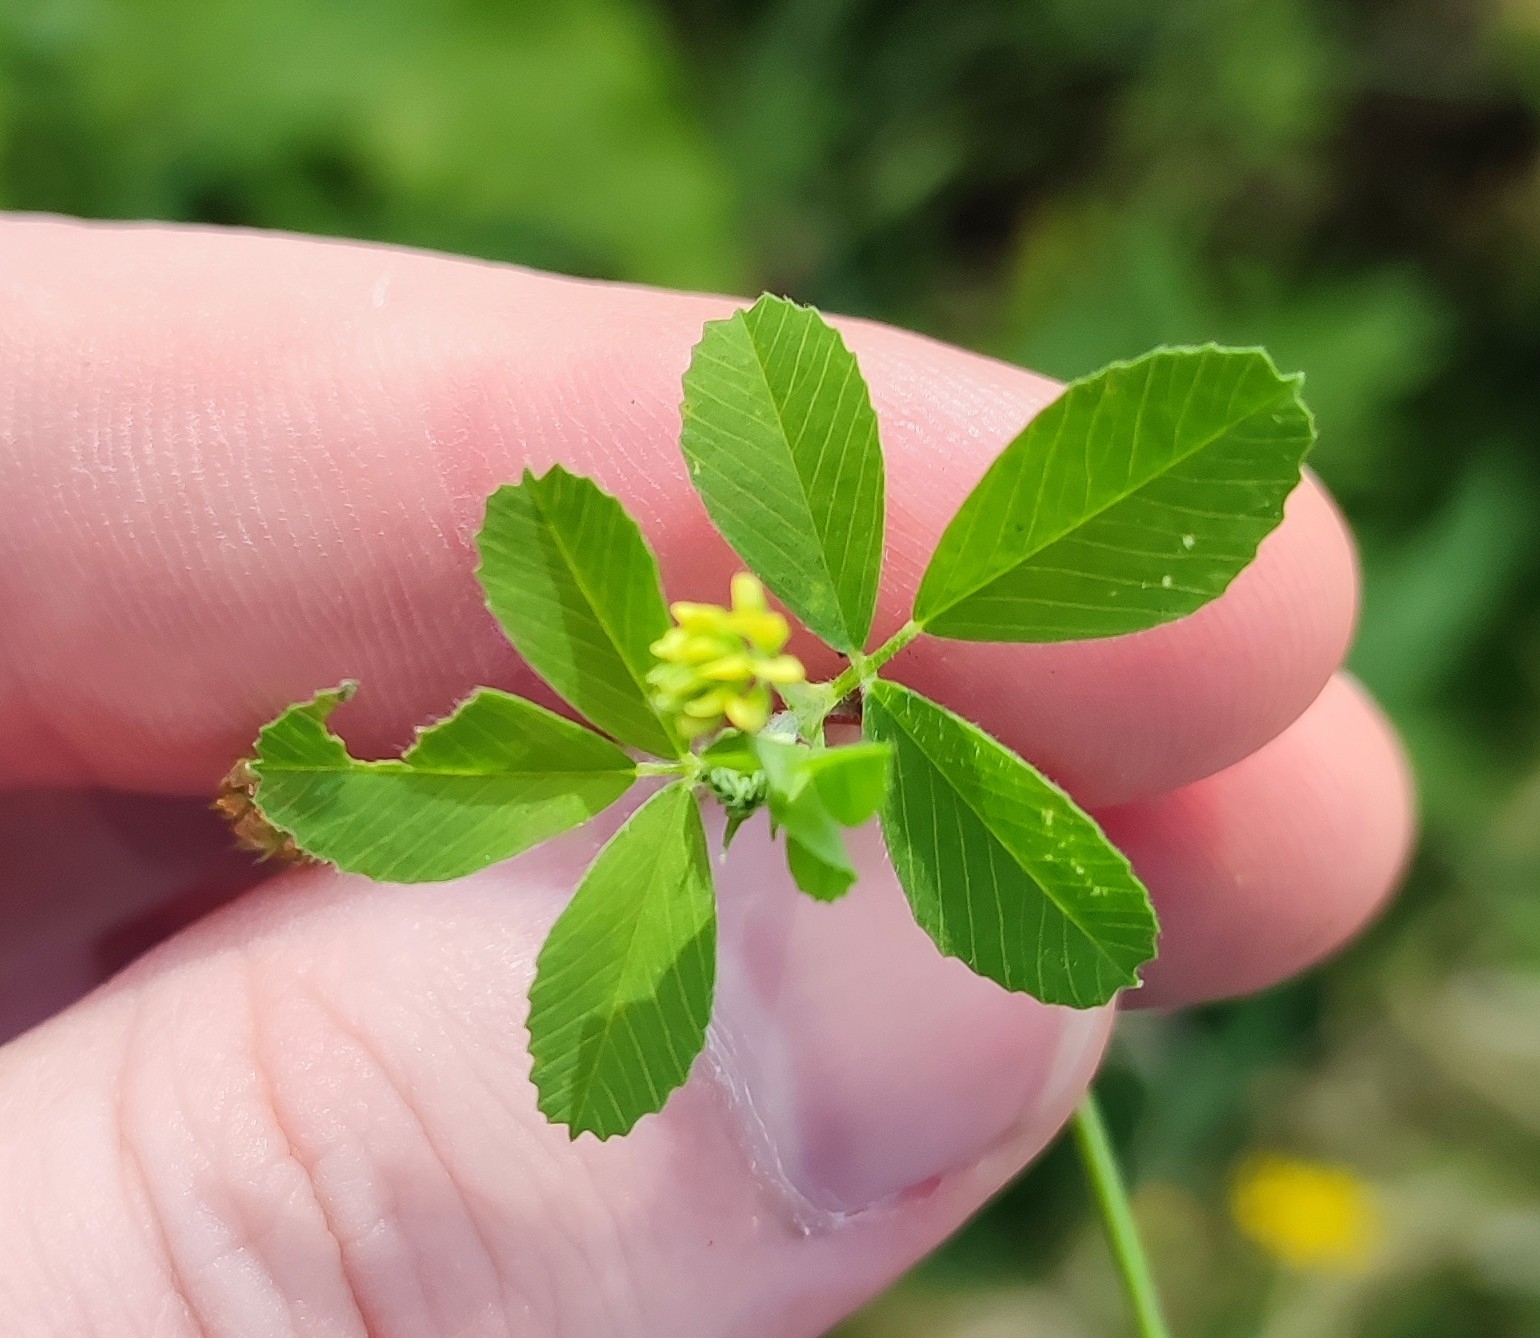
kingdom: Plantae
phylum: Tracheophyta
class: Magnoliopsida
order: Fabales
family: Fabaceae
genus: Medicago
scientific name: Medicago lupulina
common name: Black medick
